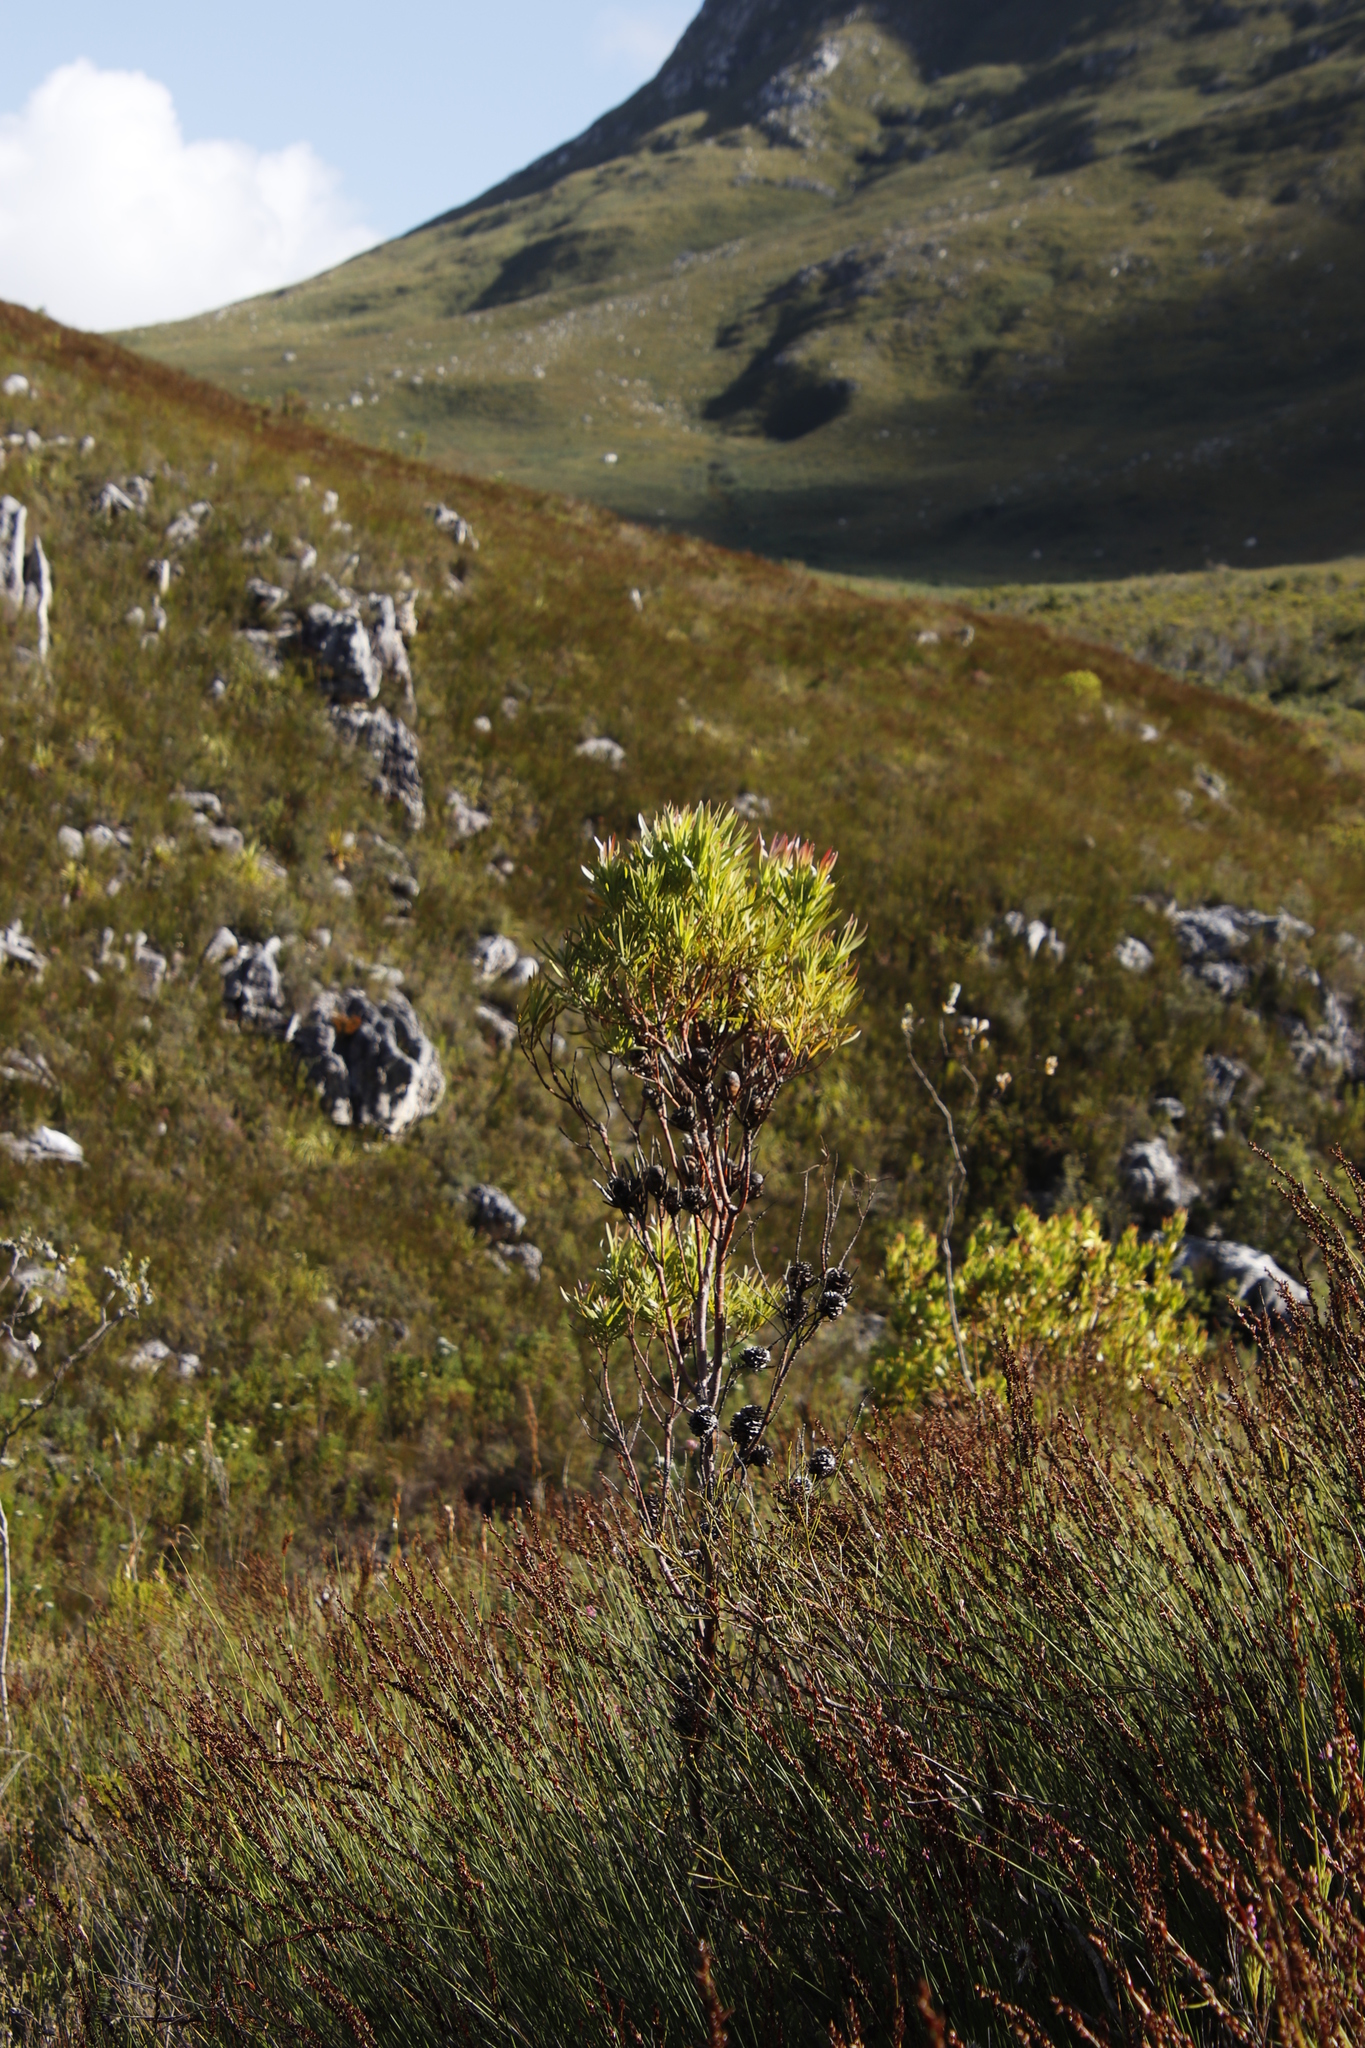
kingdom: Plantae
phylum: Tracheophyta
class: Magnoliopsida
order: Proteales
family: Proteaceae
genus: Leucadendron
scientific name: Leucadendron xanthoconus
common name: Sickle-leaf conebush
